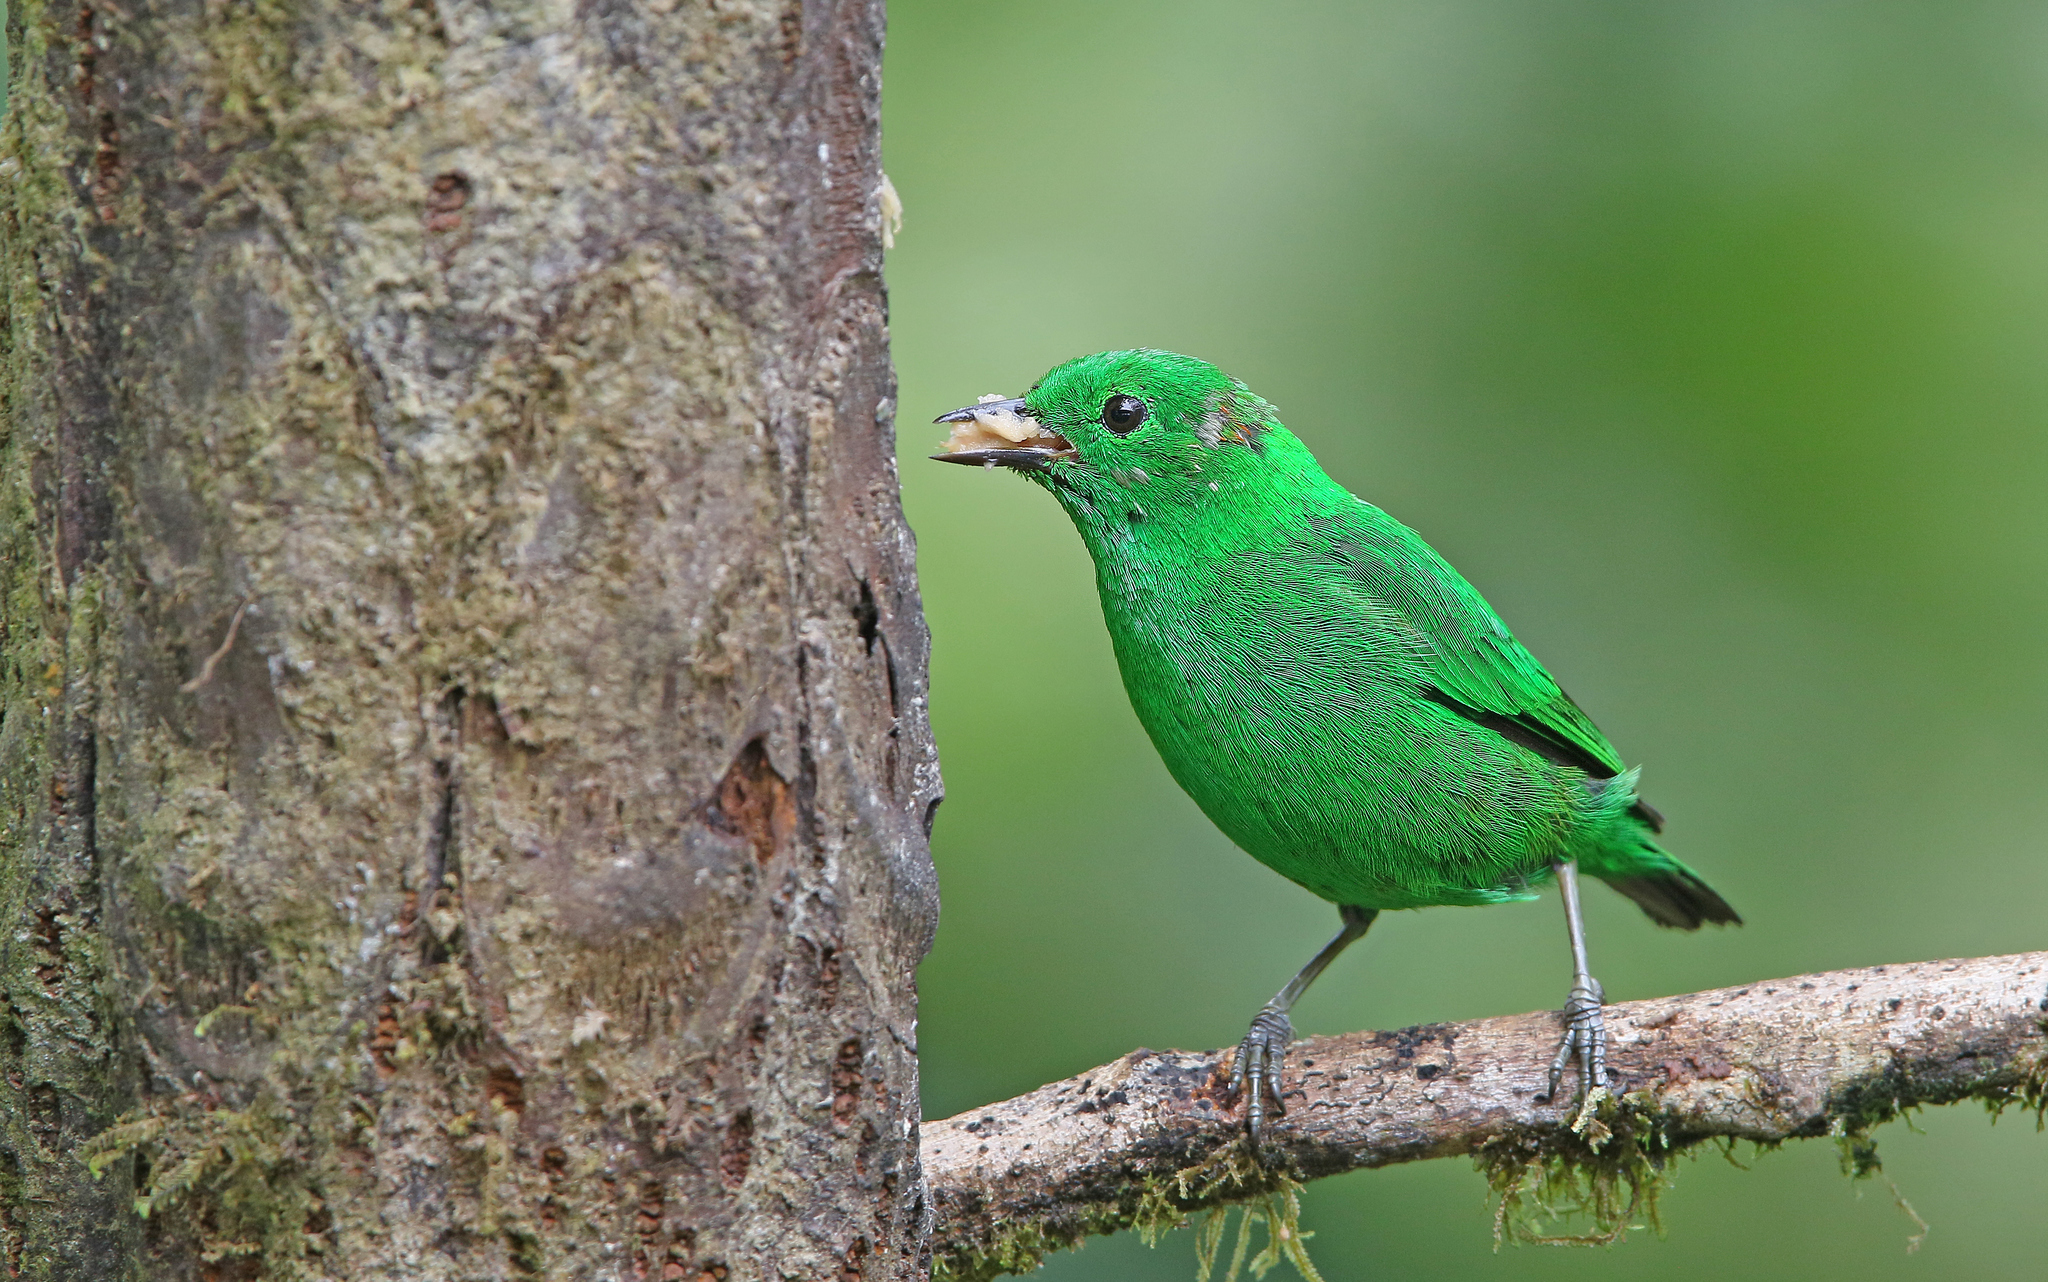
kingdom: Animalia
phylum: Chordata
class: Aves
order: Passeriformes
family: Thraupidae
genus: Chlorochrysa
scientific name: Chlorochrysa phoenicotis
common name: Glistening-green tanager
